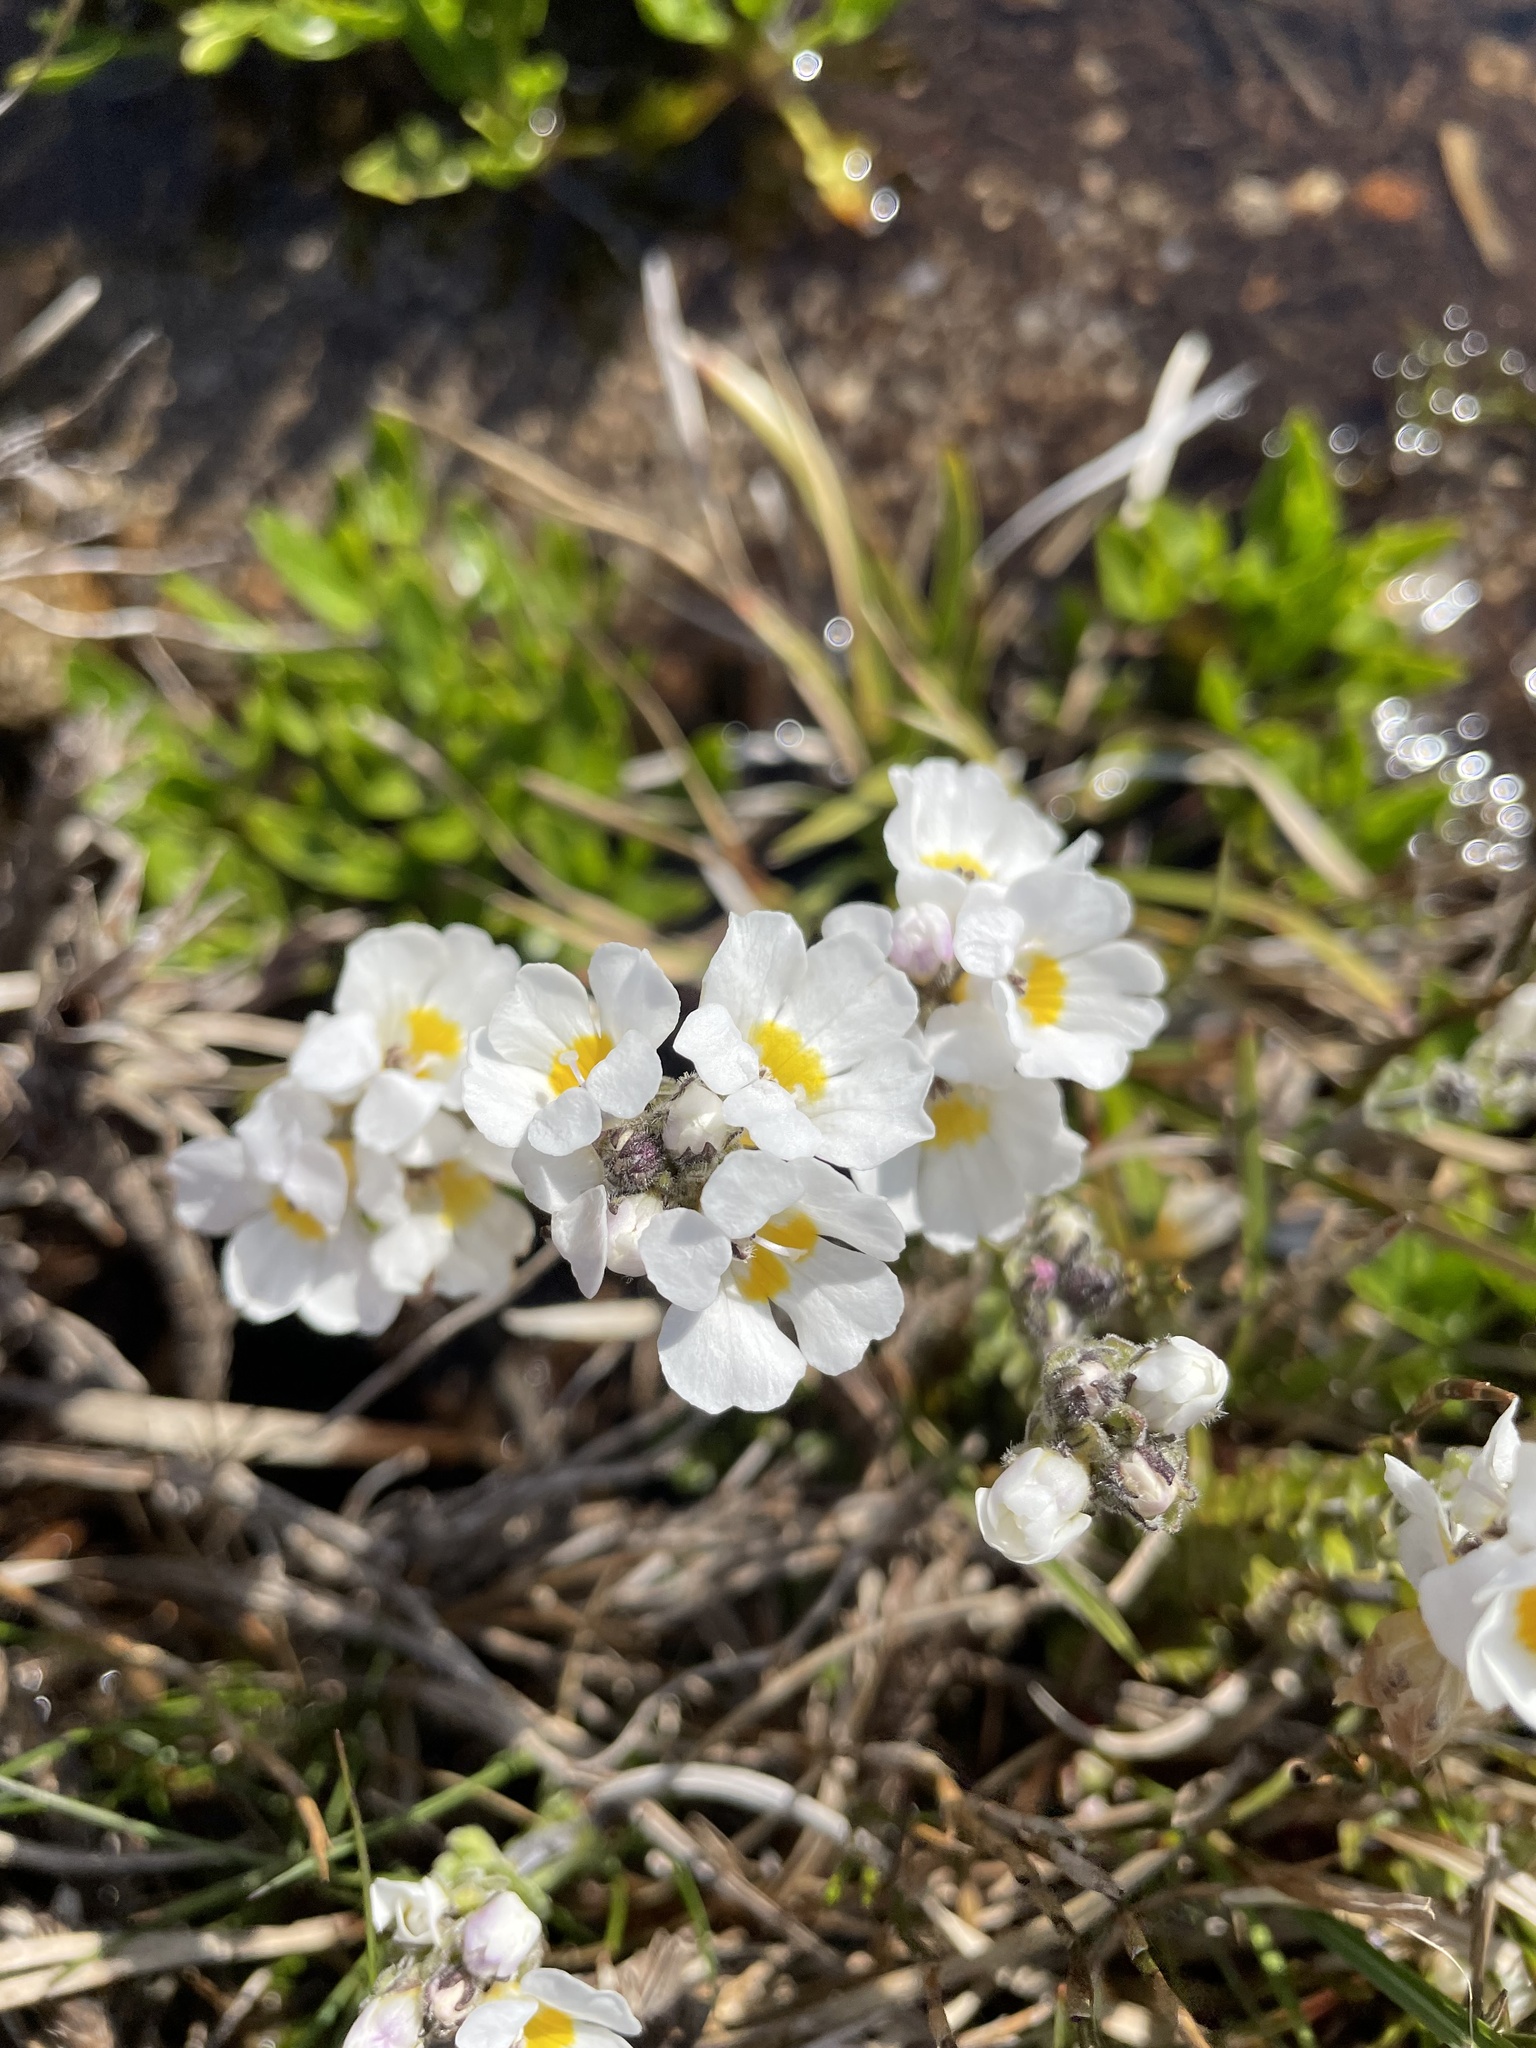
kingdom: Plantae
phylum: Tracheophyta
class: Magnoliopsida
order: Lamiales
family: Orobanchaceae
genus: Euphrasia
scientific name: Euphrasia collina
